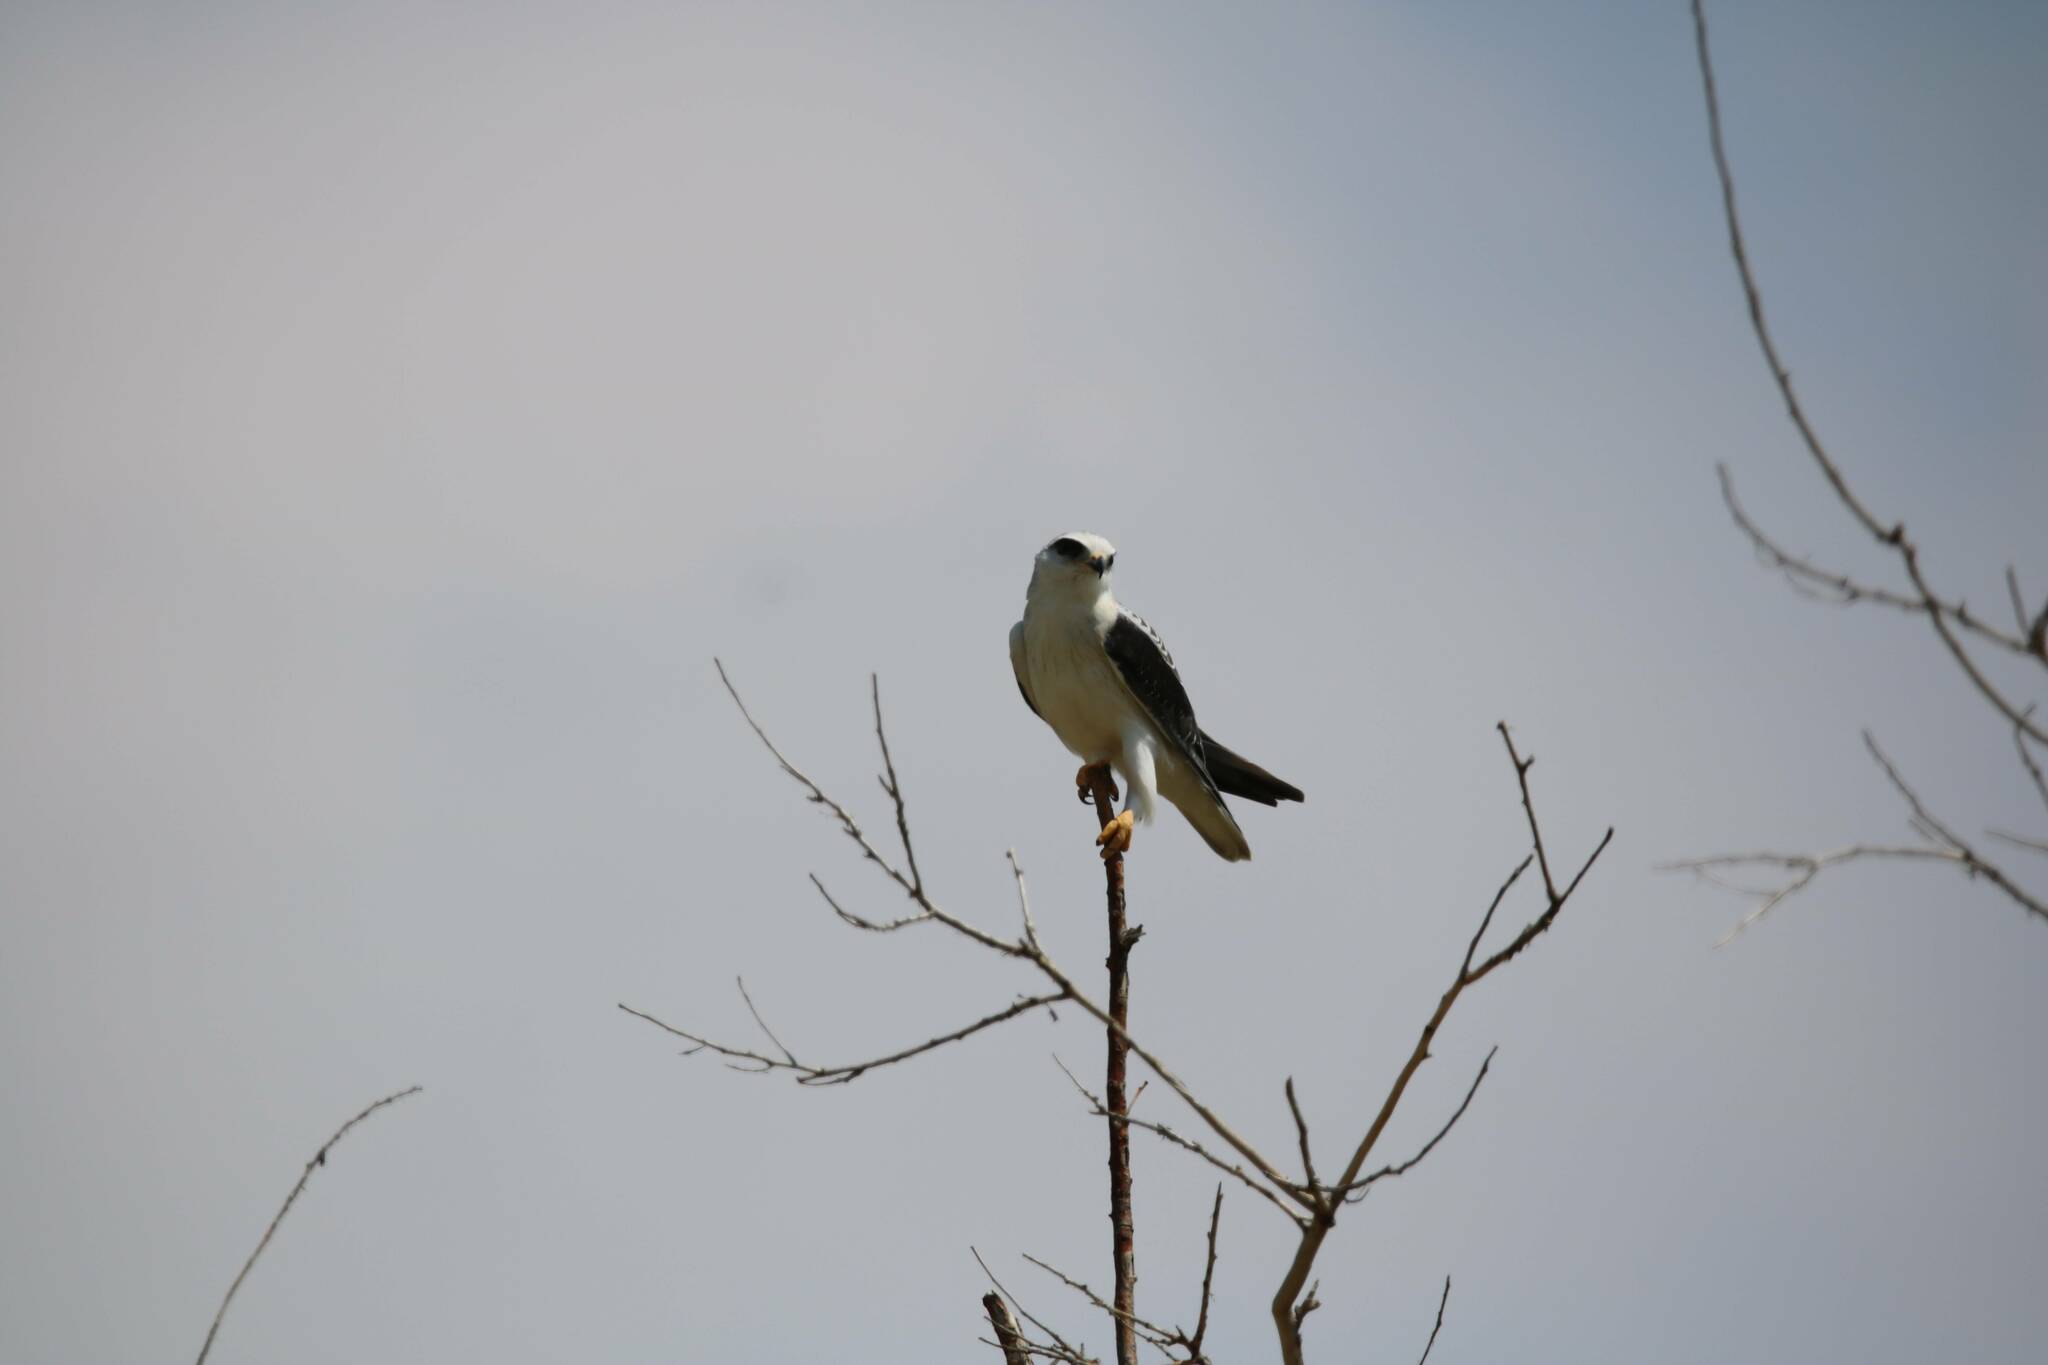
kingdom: Animalia
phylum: Chordata
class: Aves
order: Accipitriformes
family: Accipitridae
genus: Elanus
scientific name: Elanus caeruleus
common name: Black-winged kite
